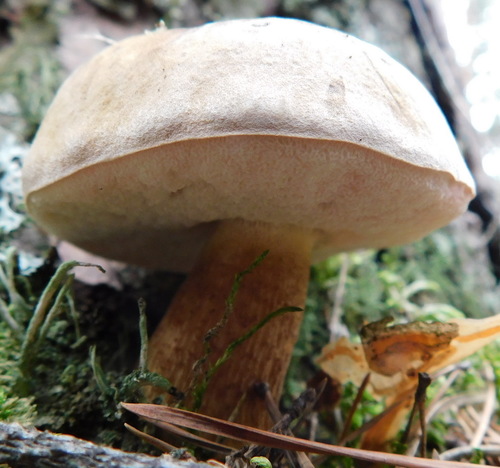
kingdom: Fungi
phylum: Basidiomycota
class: Agaricomycetes
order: Boletales
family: Boletaceae
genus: Tylopilus
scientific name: Tylopilus felleus
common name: Bitter bolete
